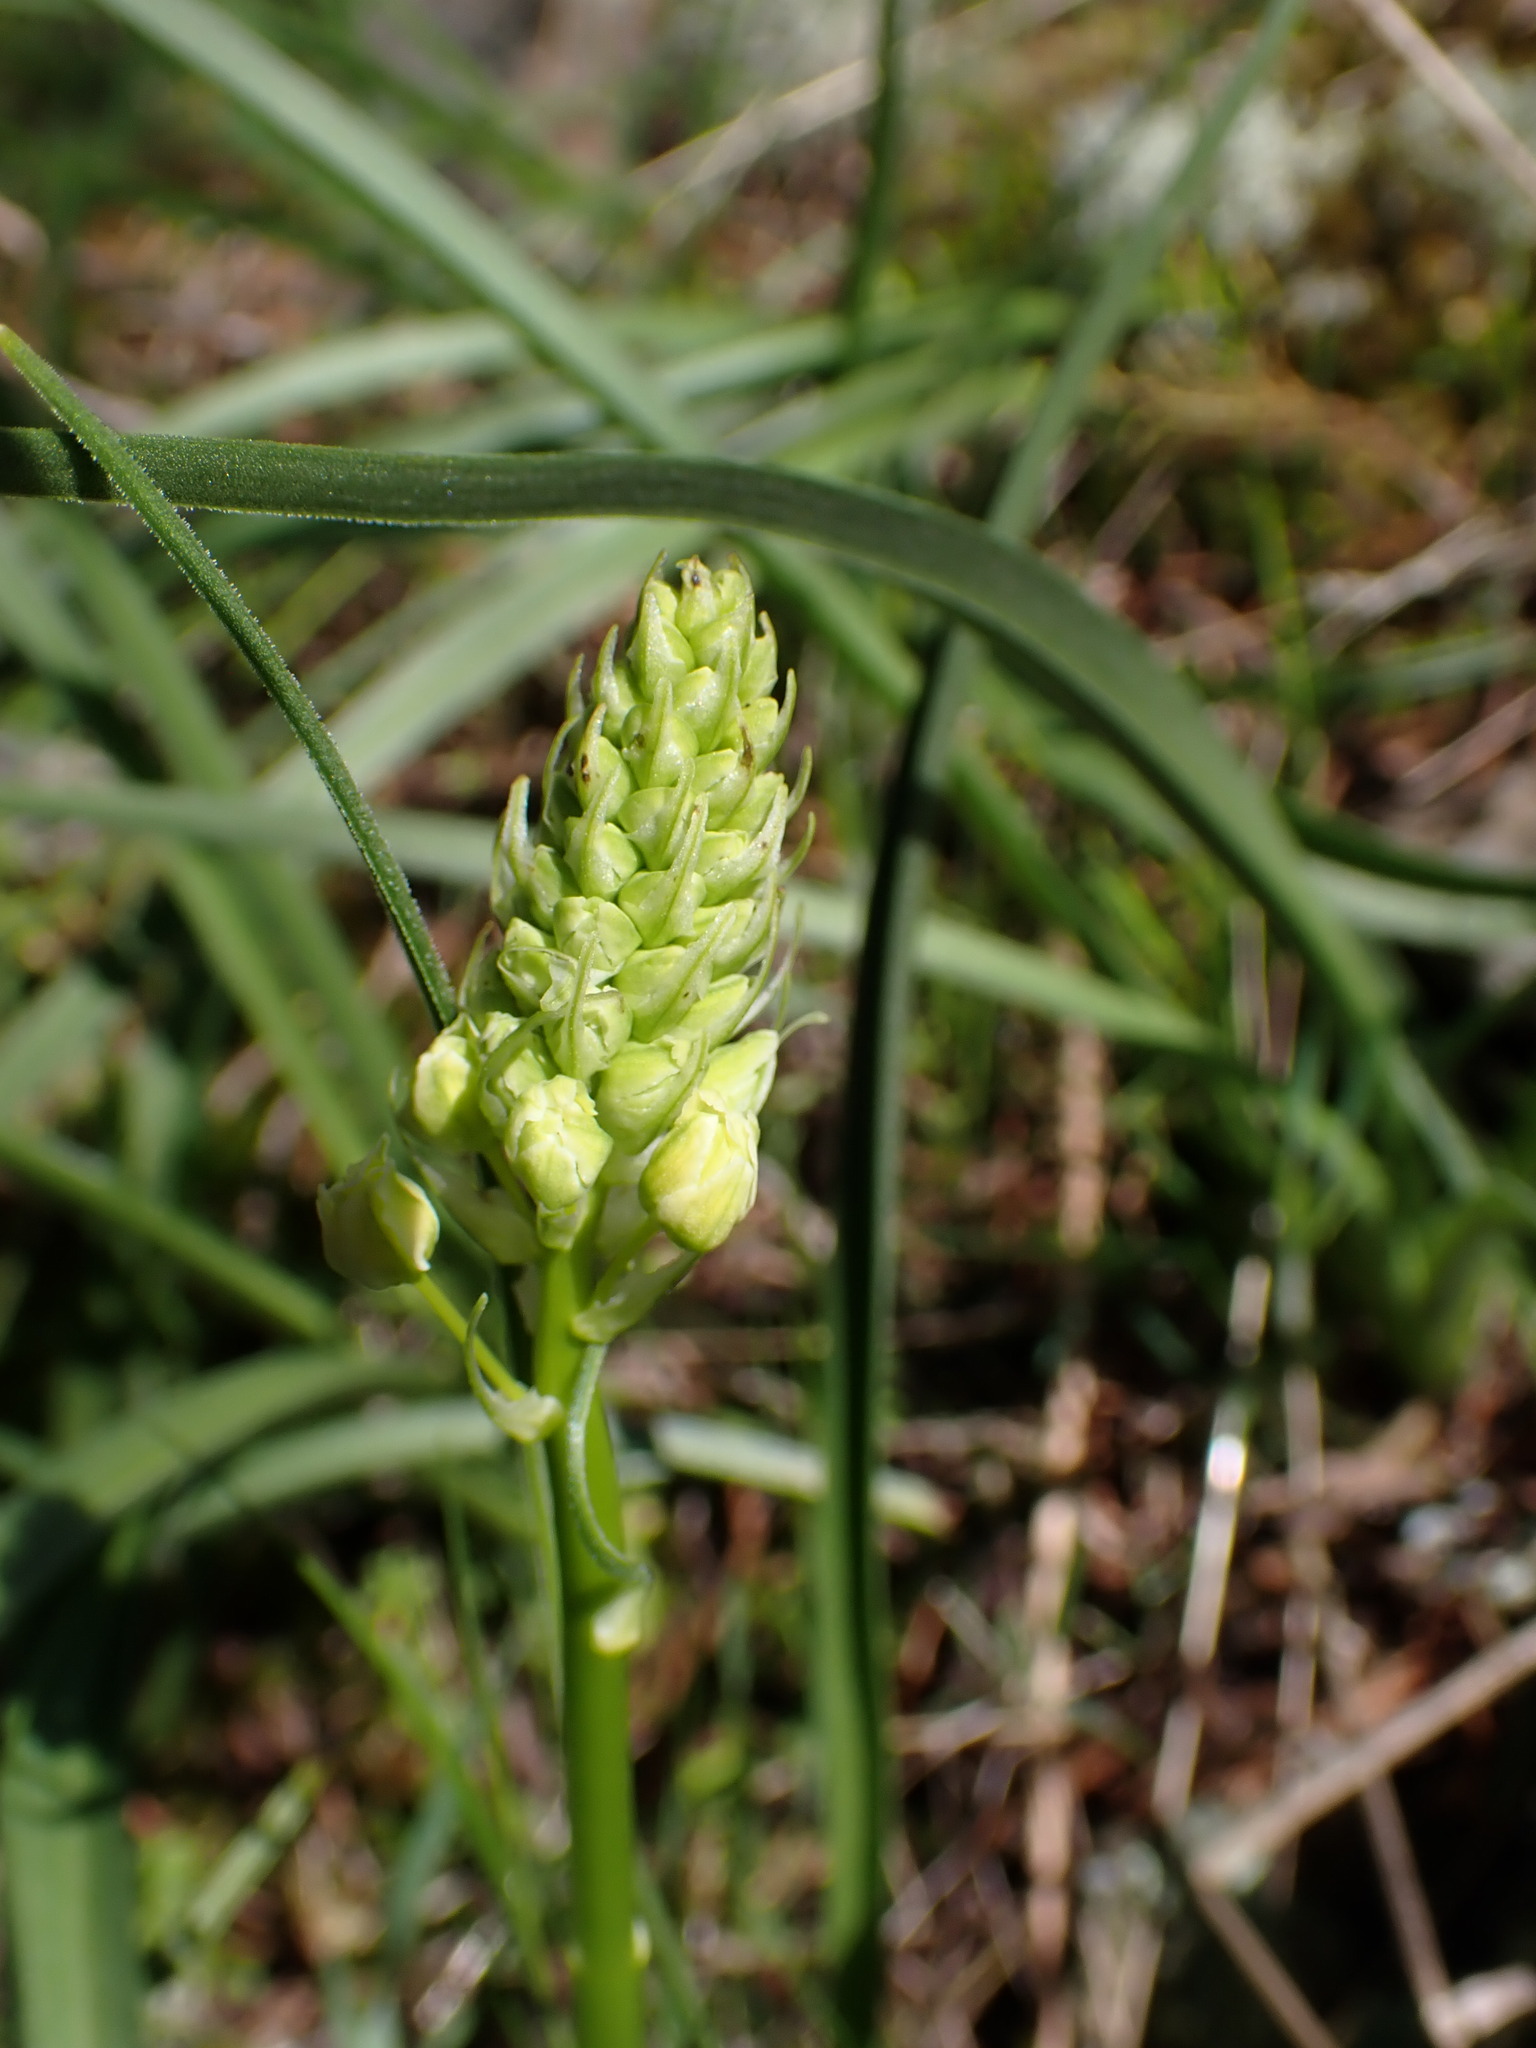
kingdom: Plantae
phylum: Tracheophyta
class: Liliopsida
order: Liliales
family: Melanthiaceae
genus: Toxicoscordion
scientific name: Toxicoscordion venenosum
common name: Meadow death camas
